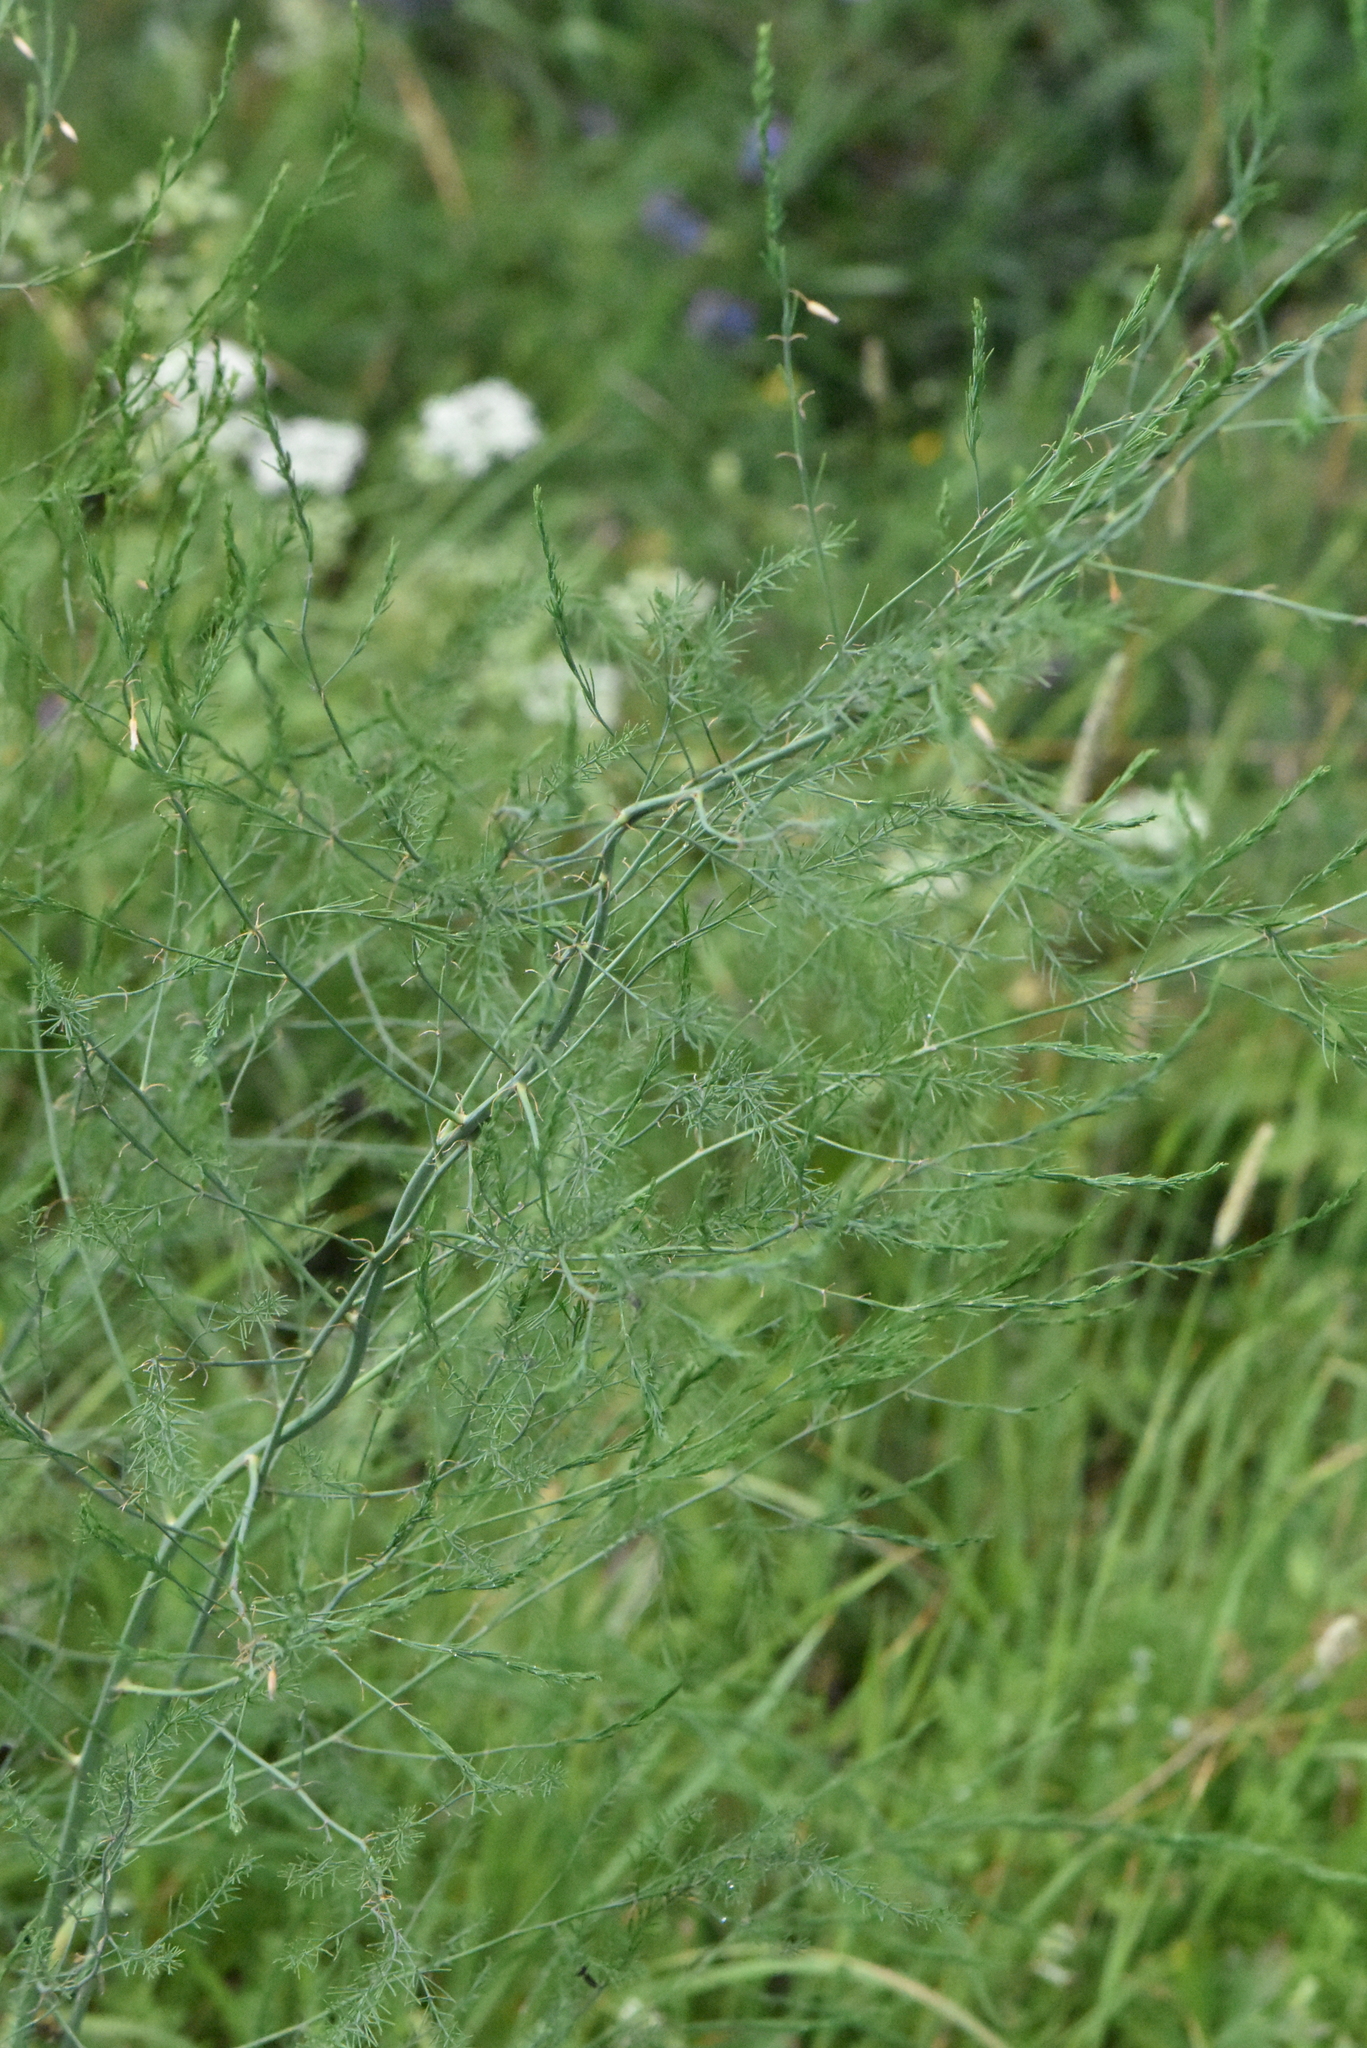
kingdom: Plantae
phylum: Tracheophyta
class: Liliopsida
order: Asparagales
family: Asparagaceae
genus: Asparagus
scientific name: Asparagus officinalis
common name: Garden asparagus
